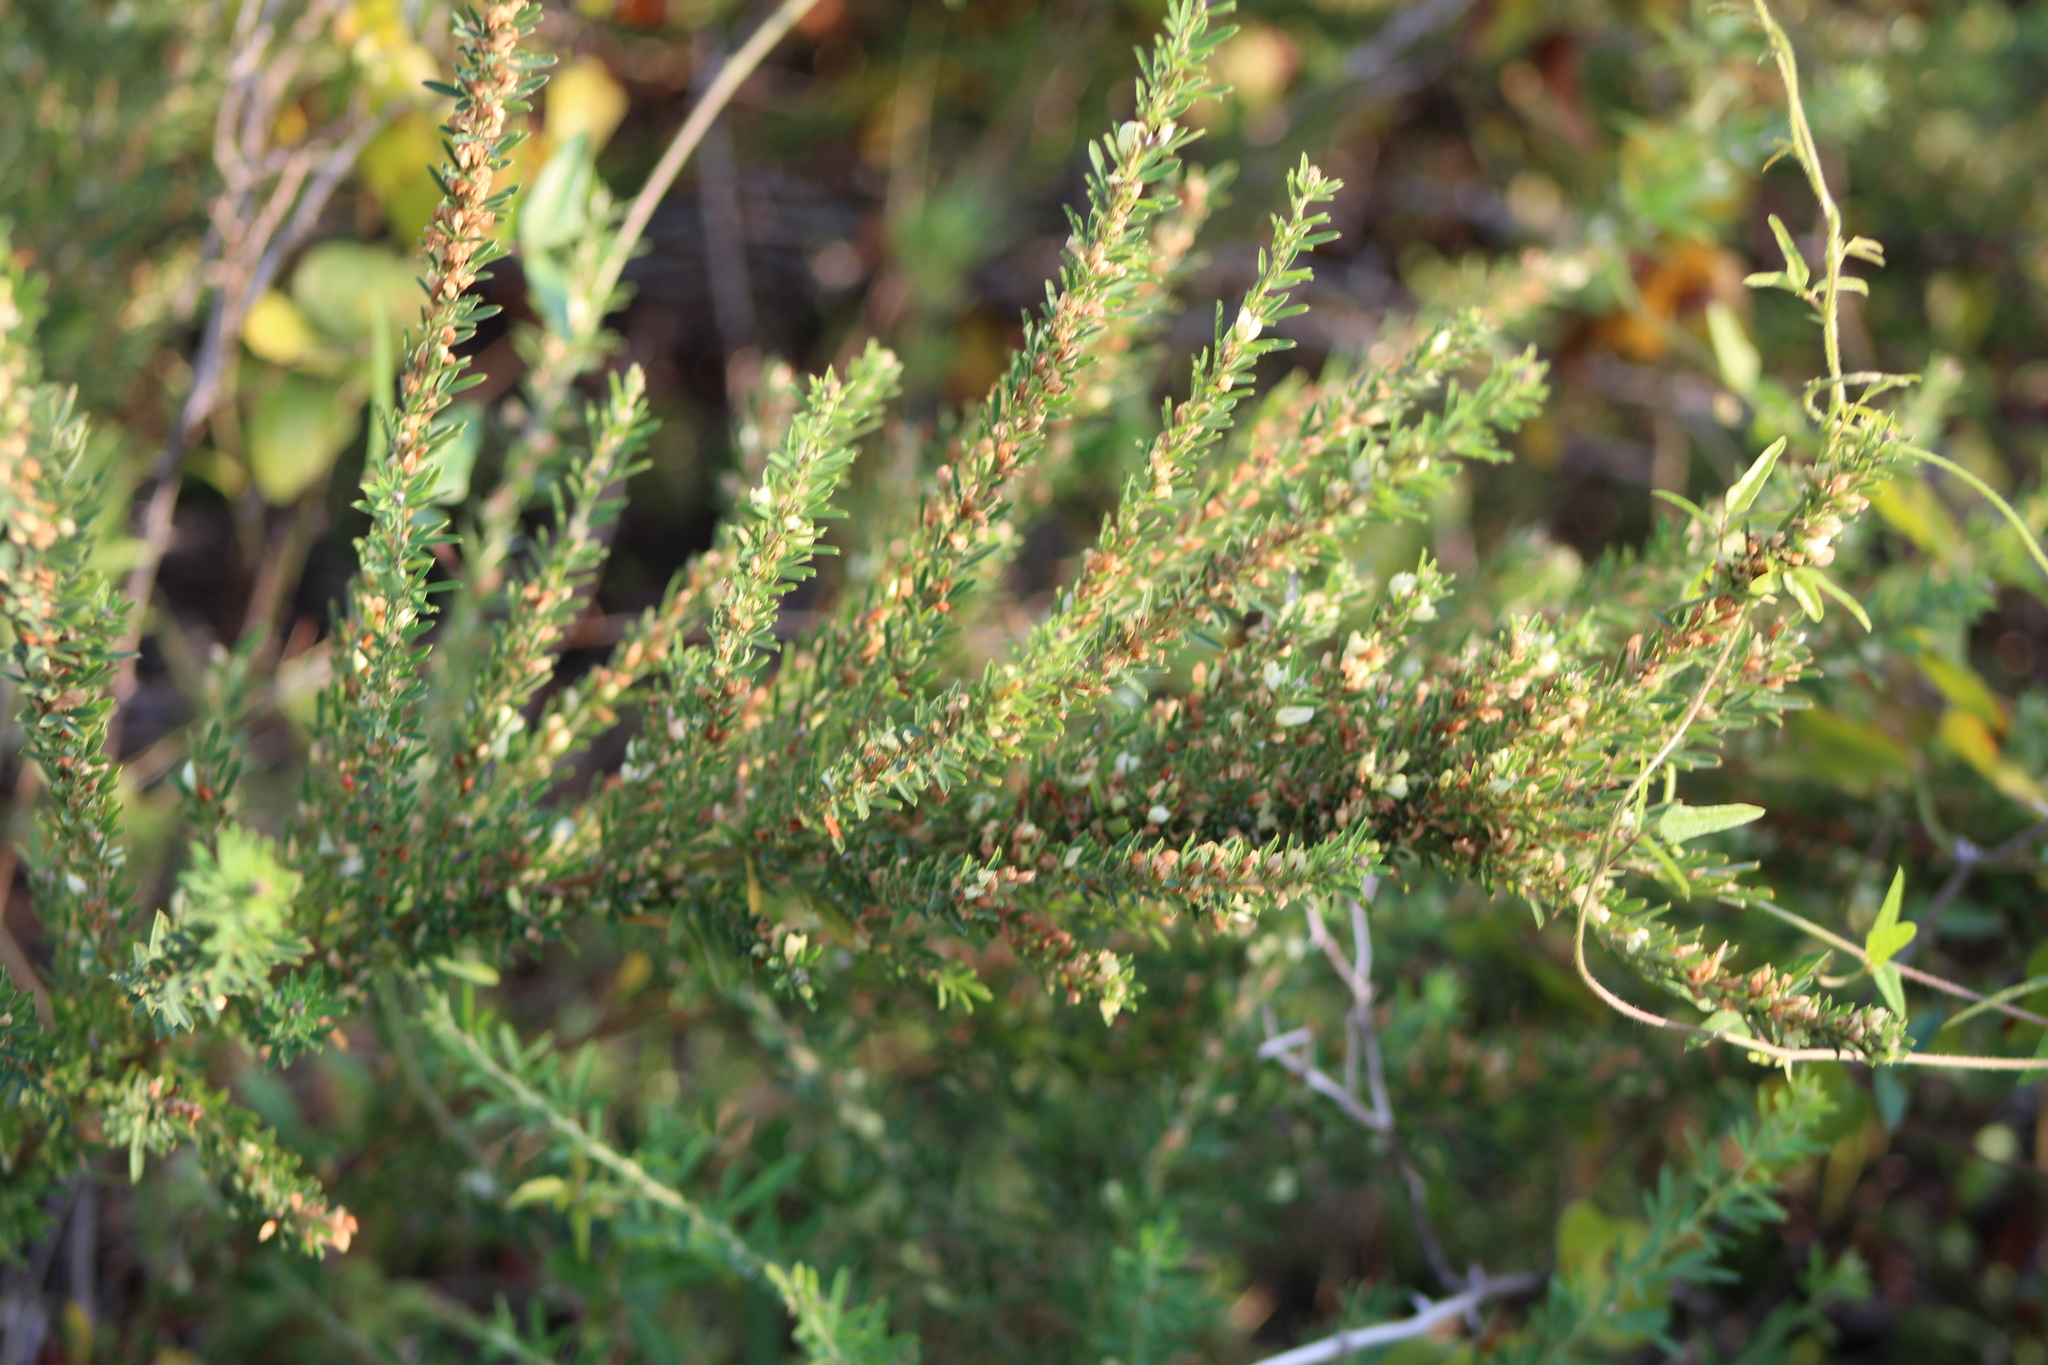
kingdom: Plantae
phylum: Tracheophyta
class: Magnoliopsida
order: Fabales
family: Fabaceae
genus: Lespedeza
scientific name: Lespedeza cuneata
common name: Chinese bush-clover
